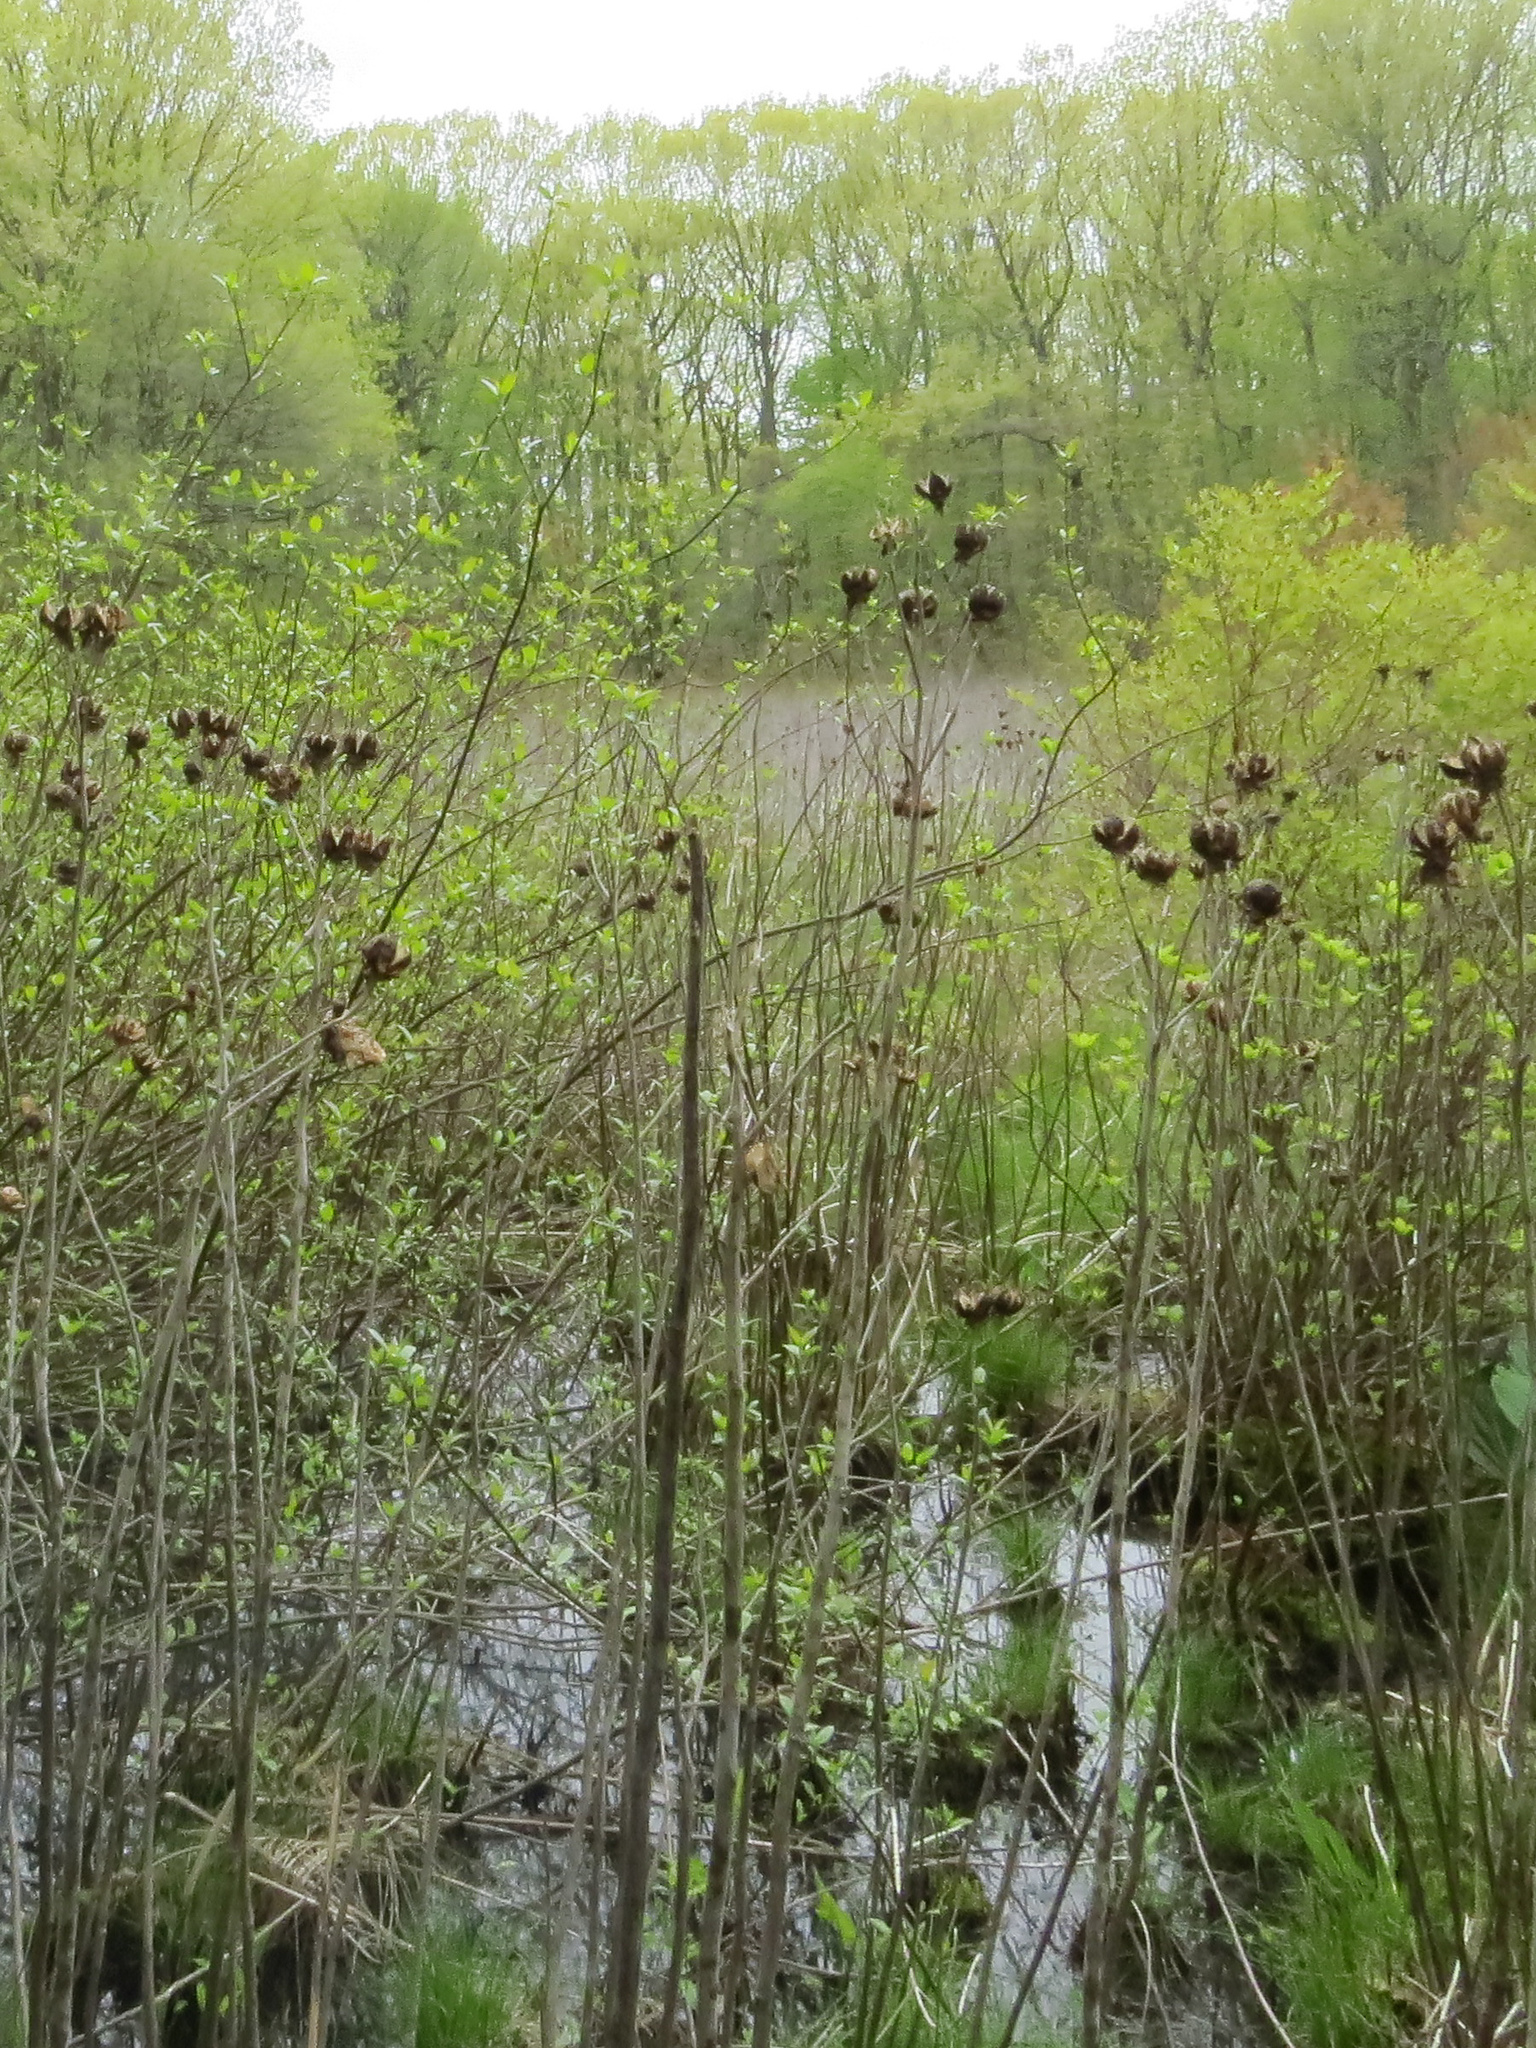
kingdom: Plantae
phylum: Tracheophyta
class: Magnoliopsida
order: Malvales
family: Malvaceae
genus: Hibiscus
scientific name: Hibiscus moscheutos
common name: Common rose-mallow
